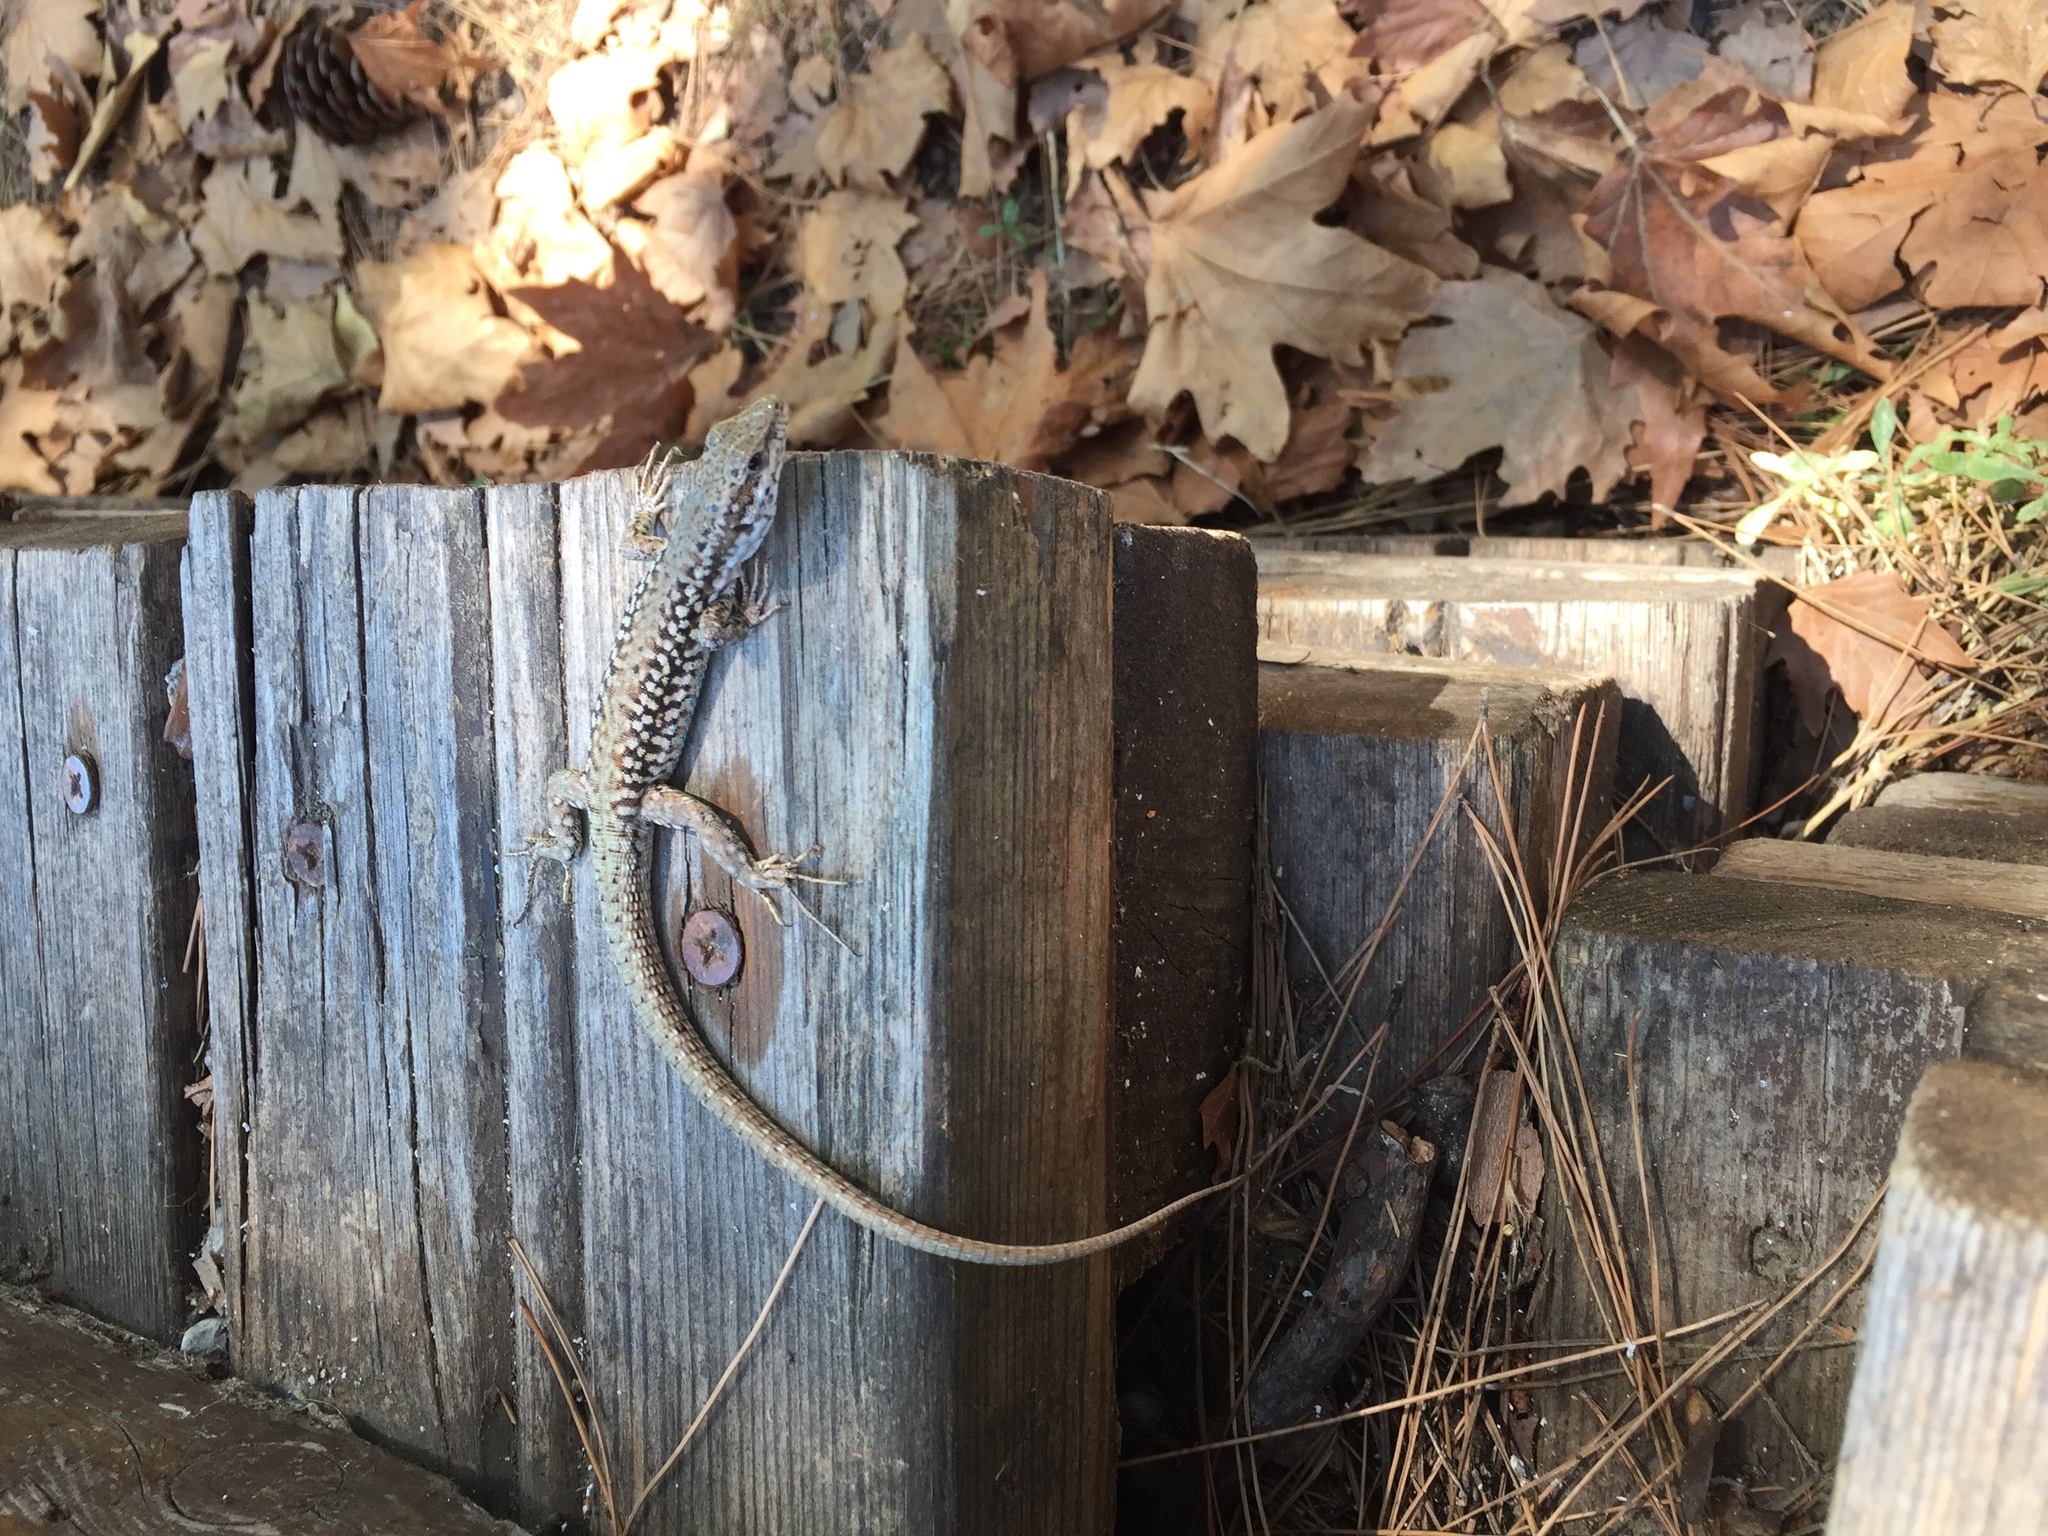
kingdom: Animalia
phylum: Chordata
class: Squamata
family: Lacertidae
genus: Podarcis
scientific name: Podarcis erhardii
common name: Erhard's wall lizard
